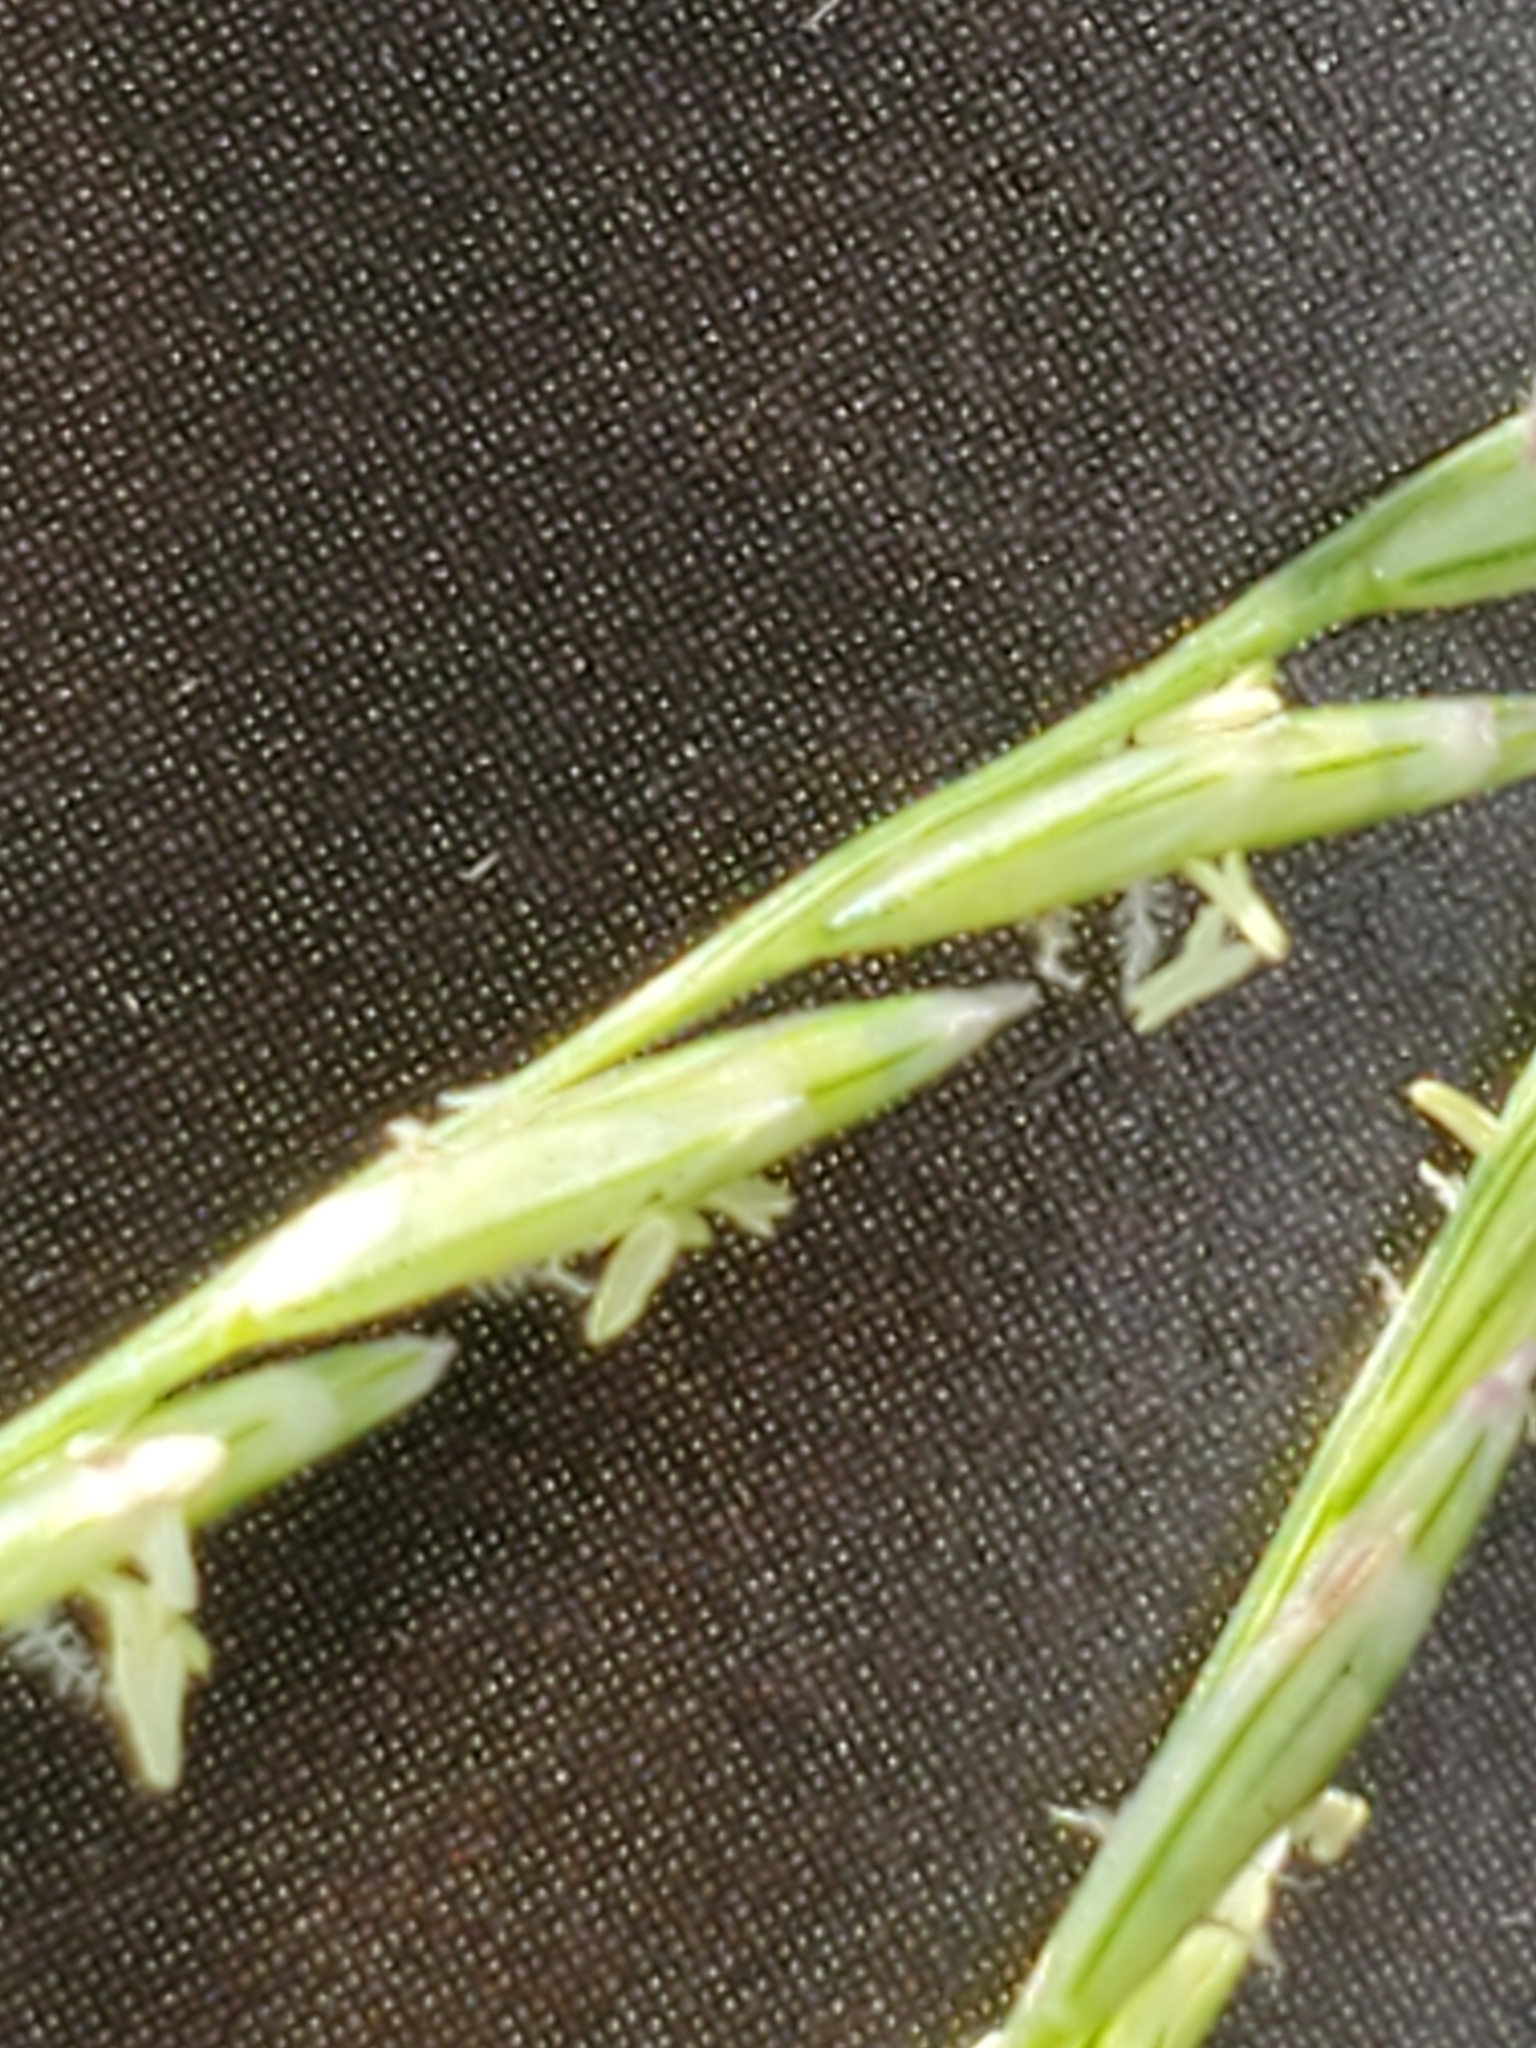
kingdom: Plantae
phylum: Tracheophyta
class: Liliopsida
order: Poales
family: Poaceae
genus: Disakisperma
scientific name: Disakisperma dubium
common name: Green sprangletop
